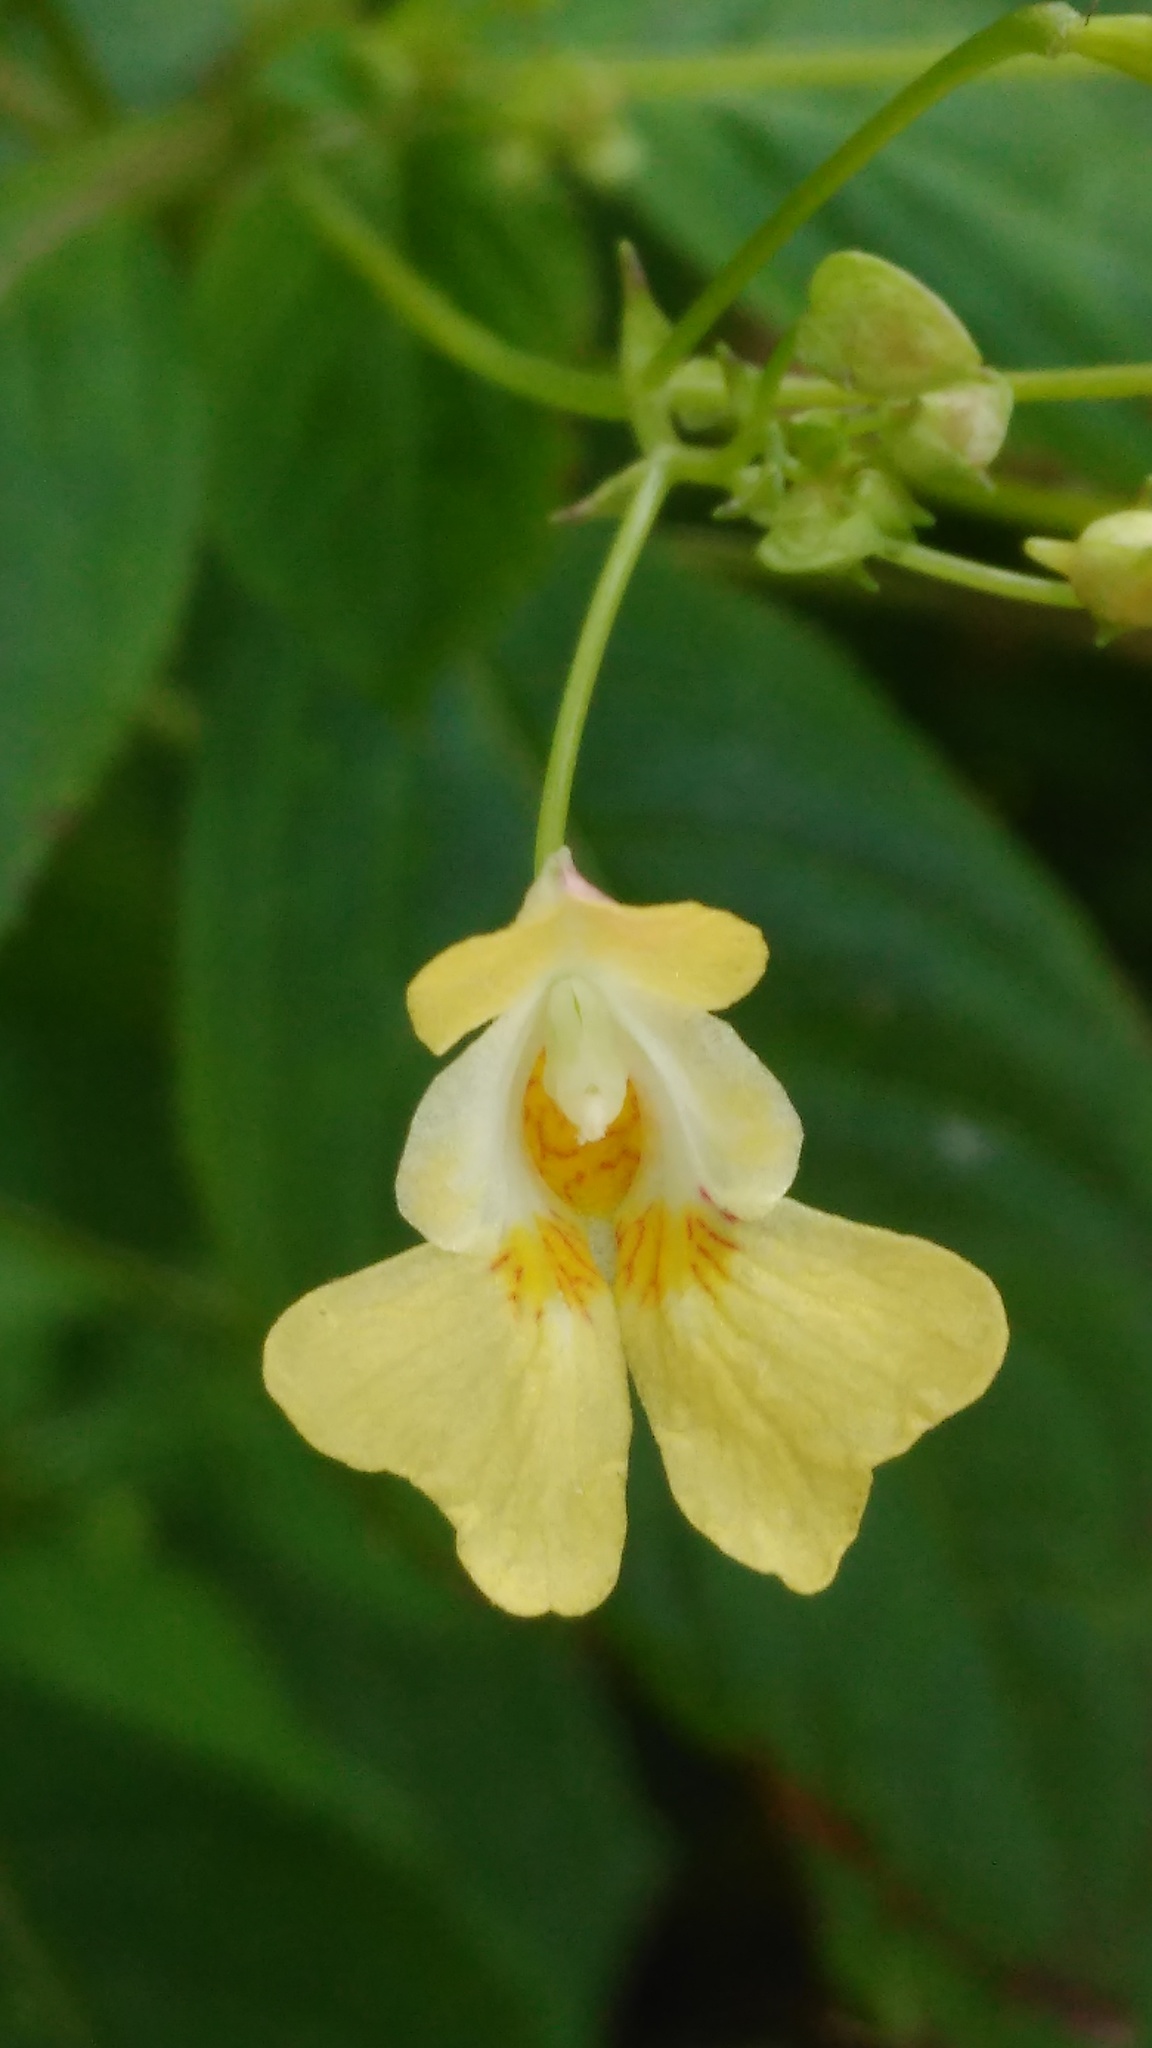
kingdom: Plantae
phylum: Tracheophyta
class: Magnoliopsida
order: Ericales
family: Balsaminaceae
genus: Impatiens
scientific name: Impatiens parviflora
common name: Small balsam
